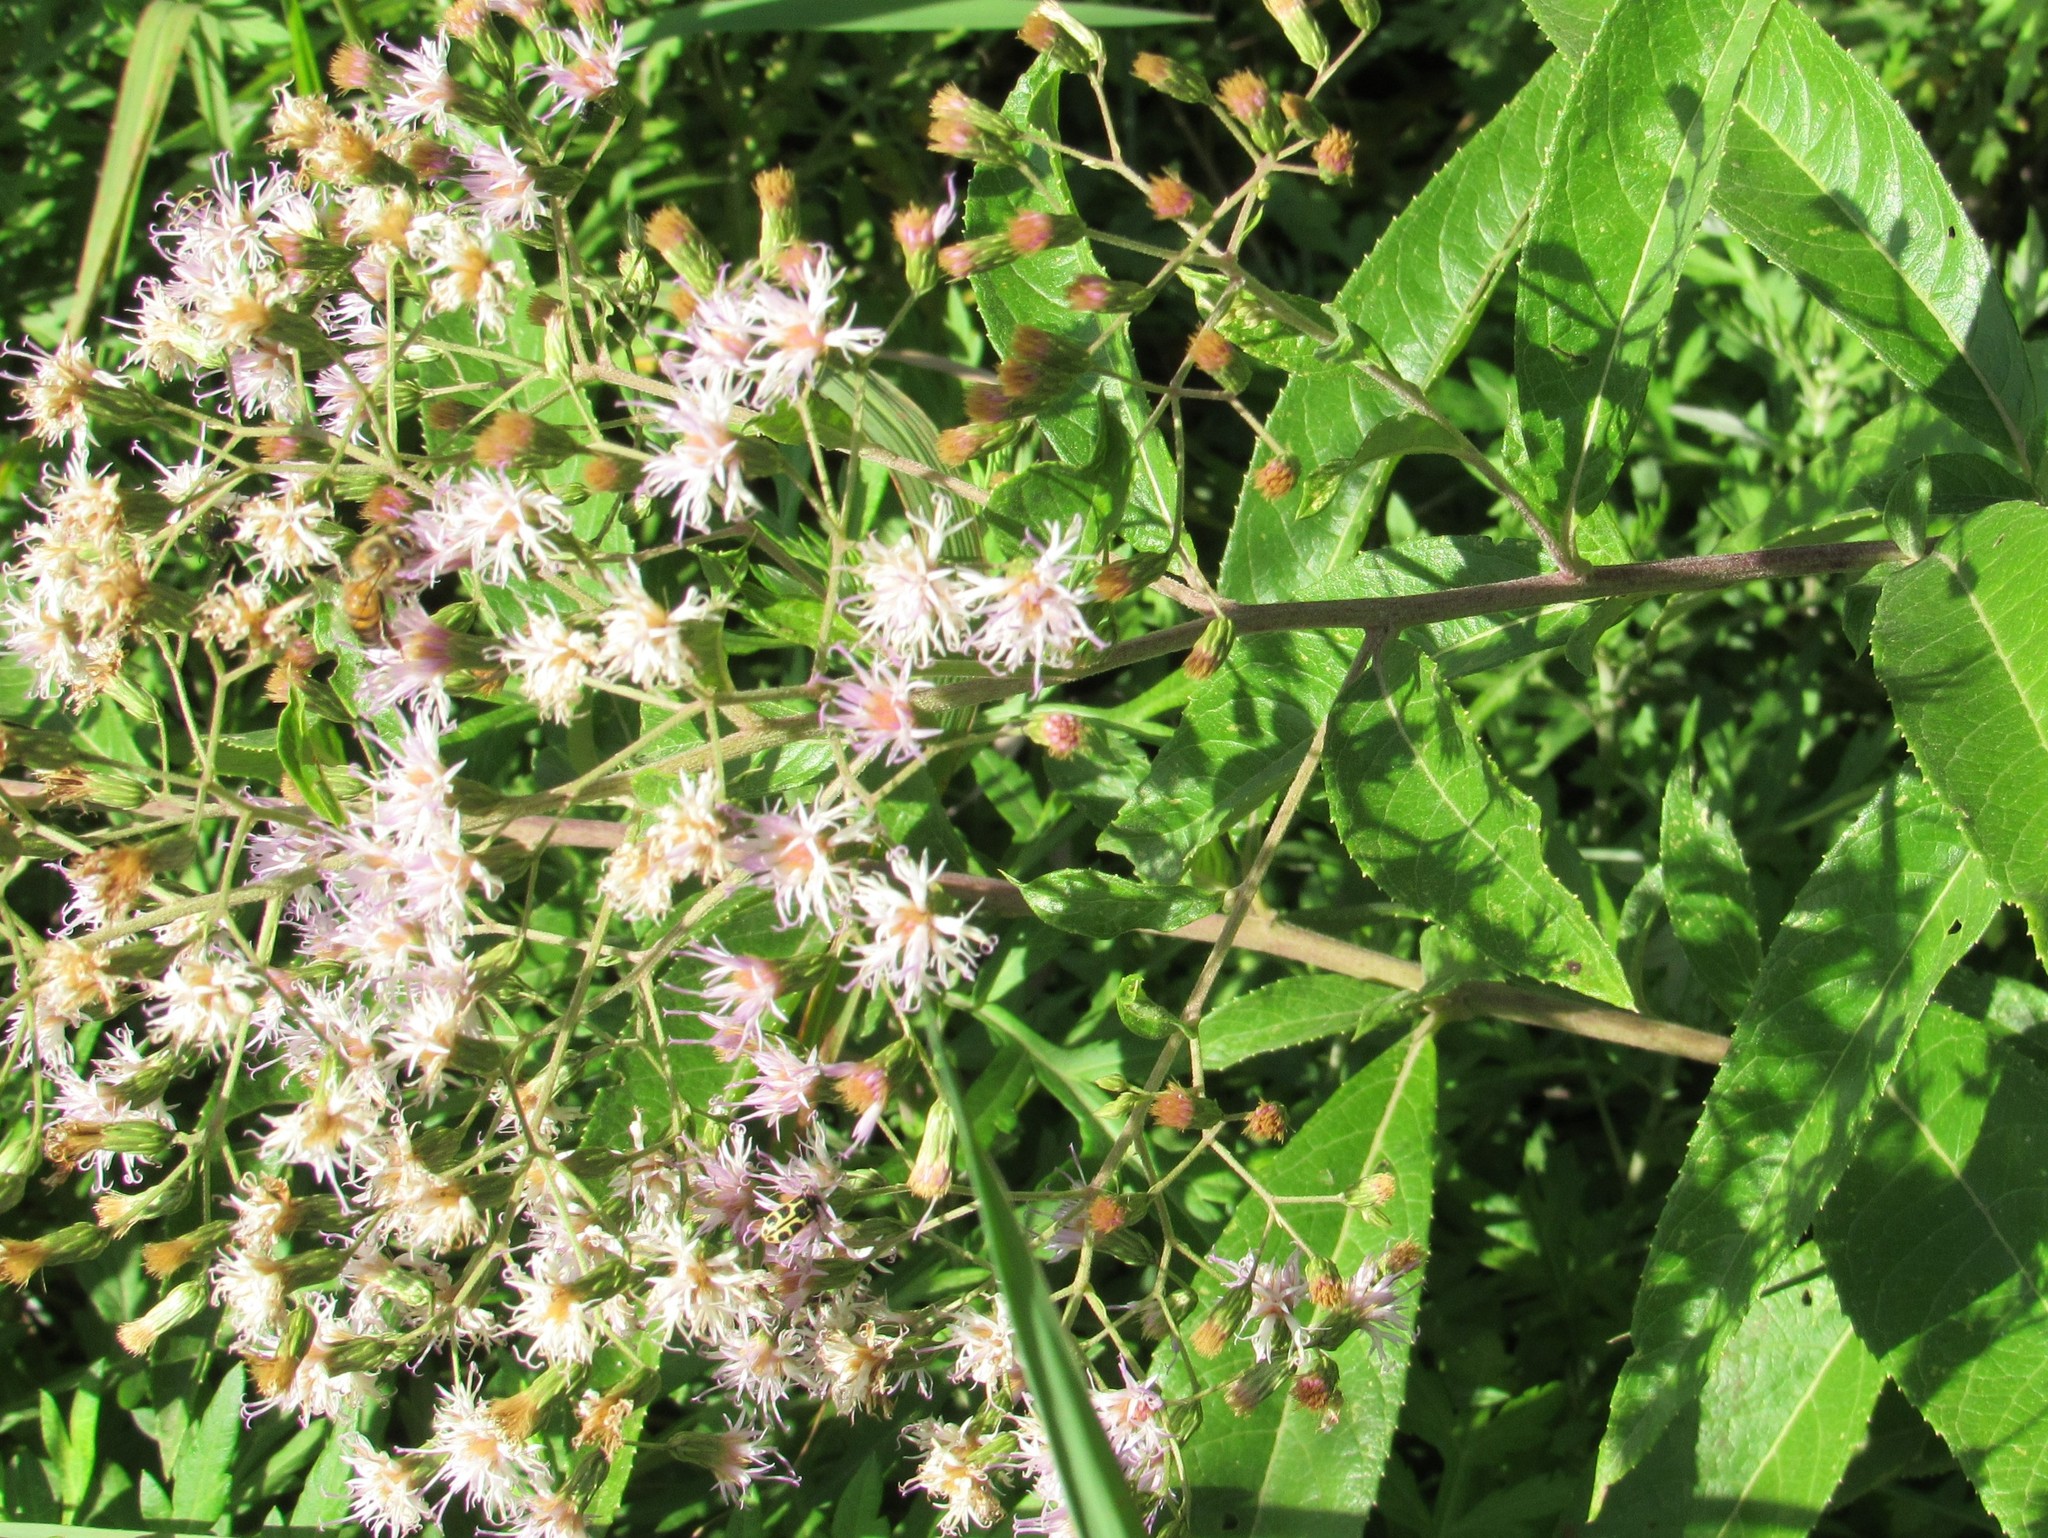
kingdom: Plantae
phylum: Tracheophyta
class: Magnoliopsida
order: Asterales
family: Asteraceae
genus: Vernonanthura
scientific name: Vernonanthura tweedieana
